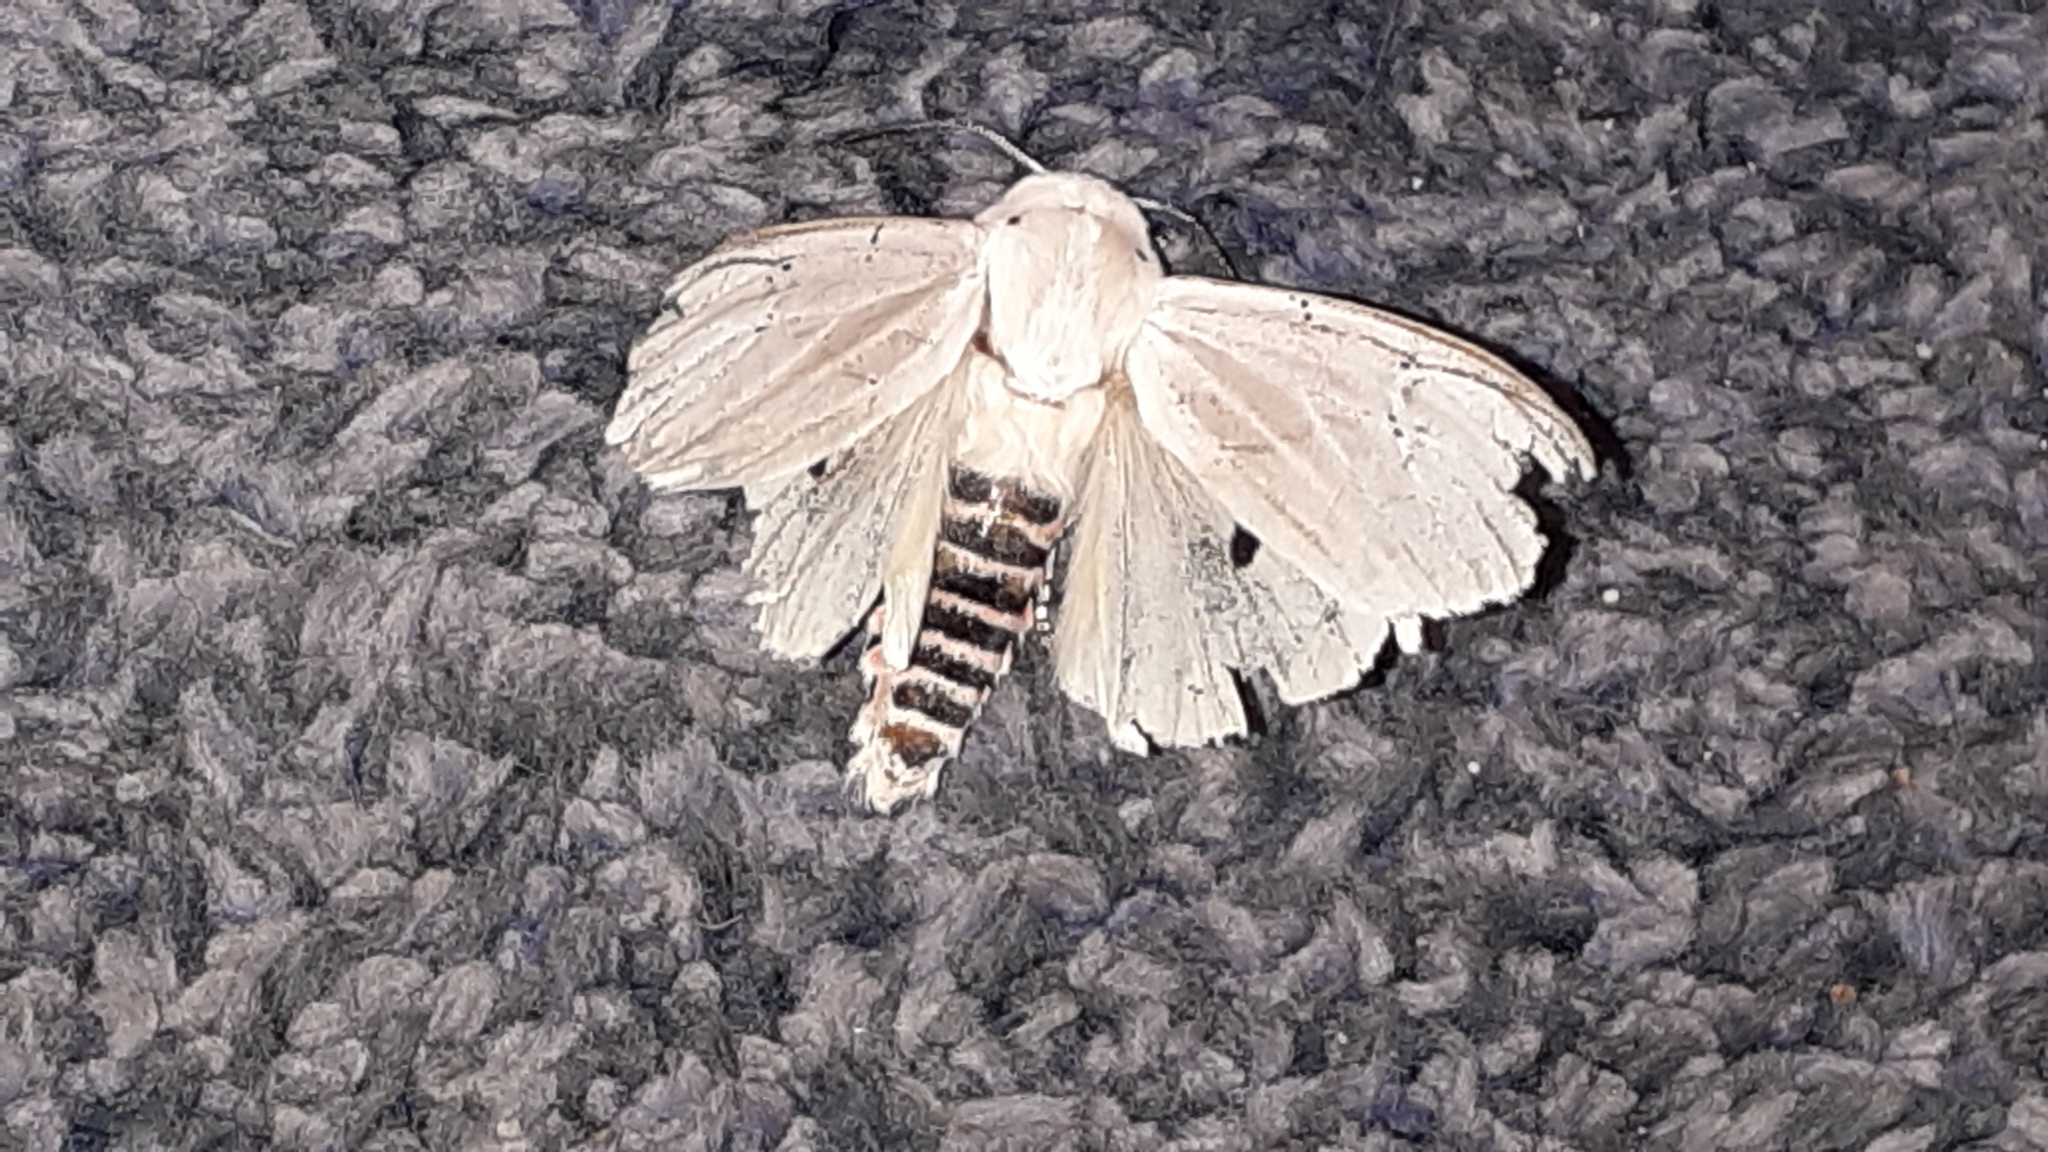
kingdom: Animalia
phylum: Arthropoda
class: Insecta
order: Lepidoptera
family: Erebidae
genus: Rhodogastria
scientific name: Rhodogastria amasis
